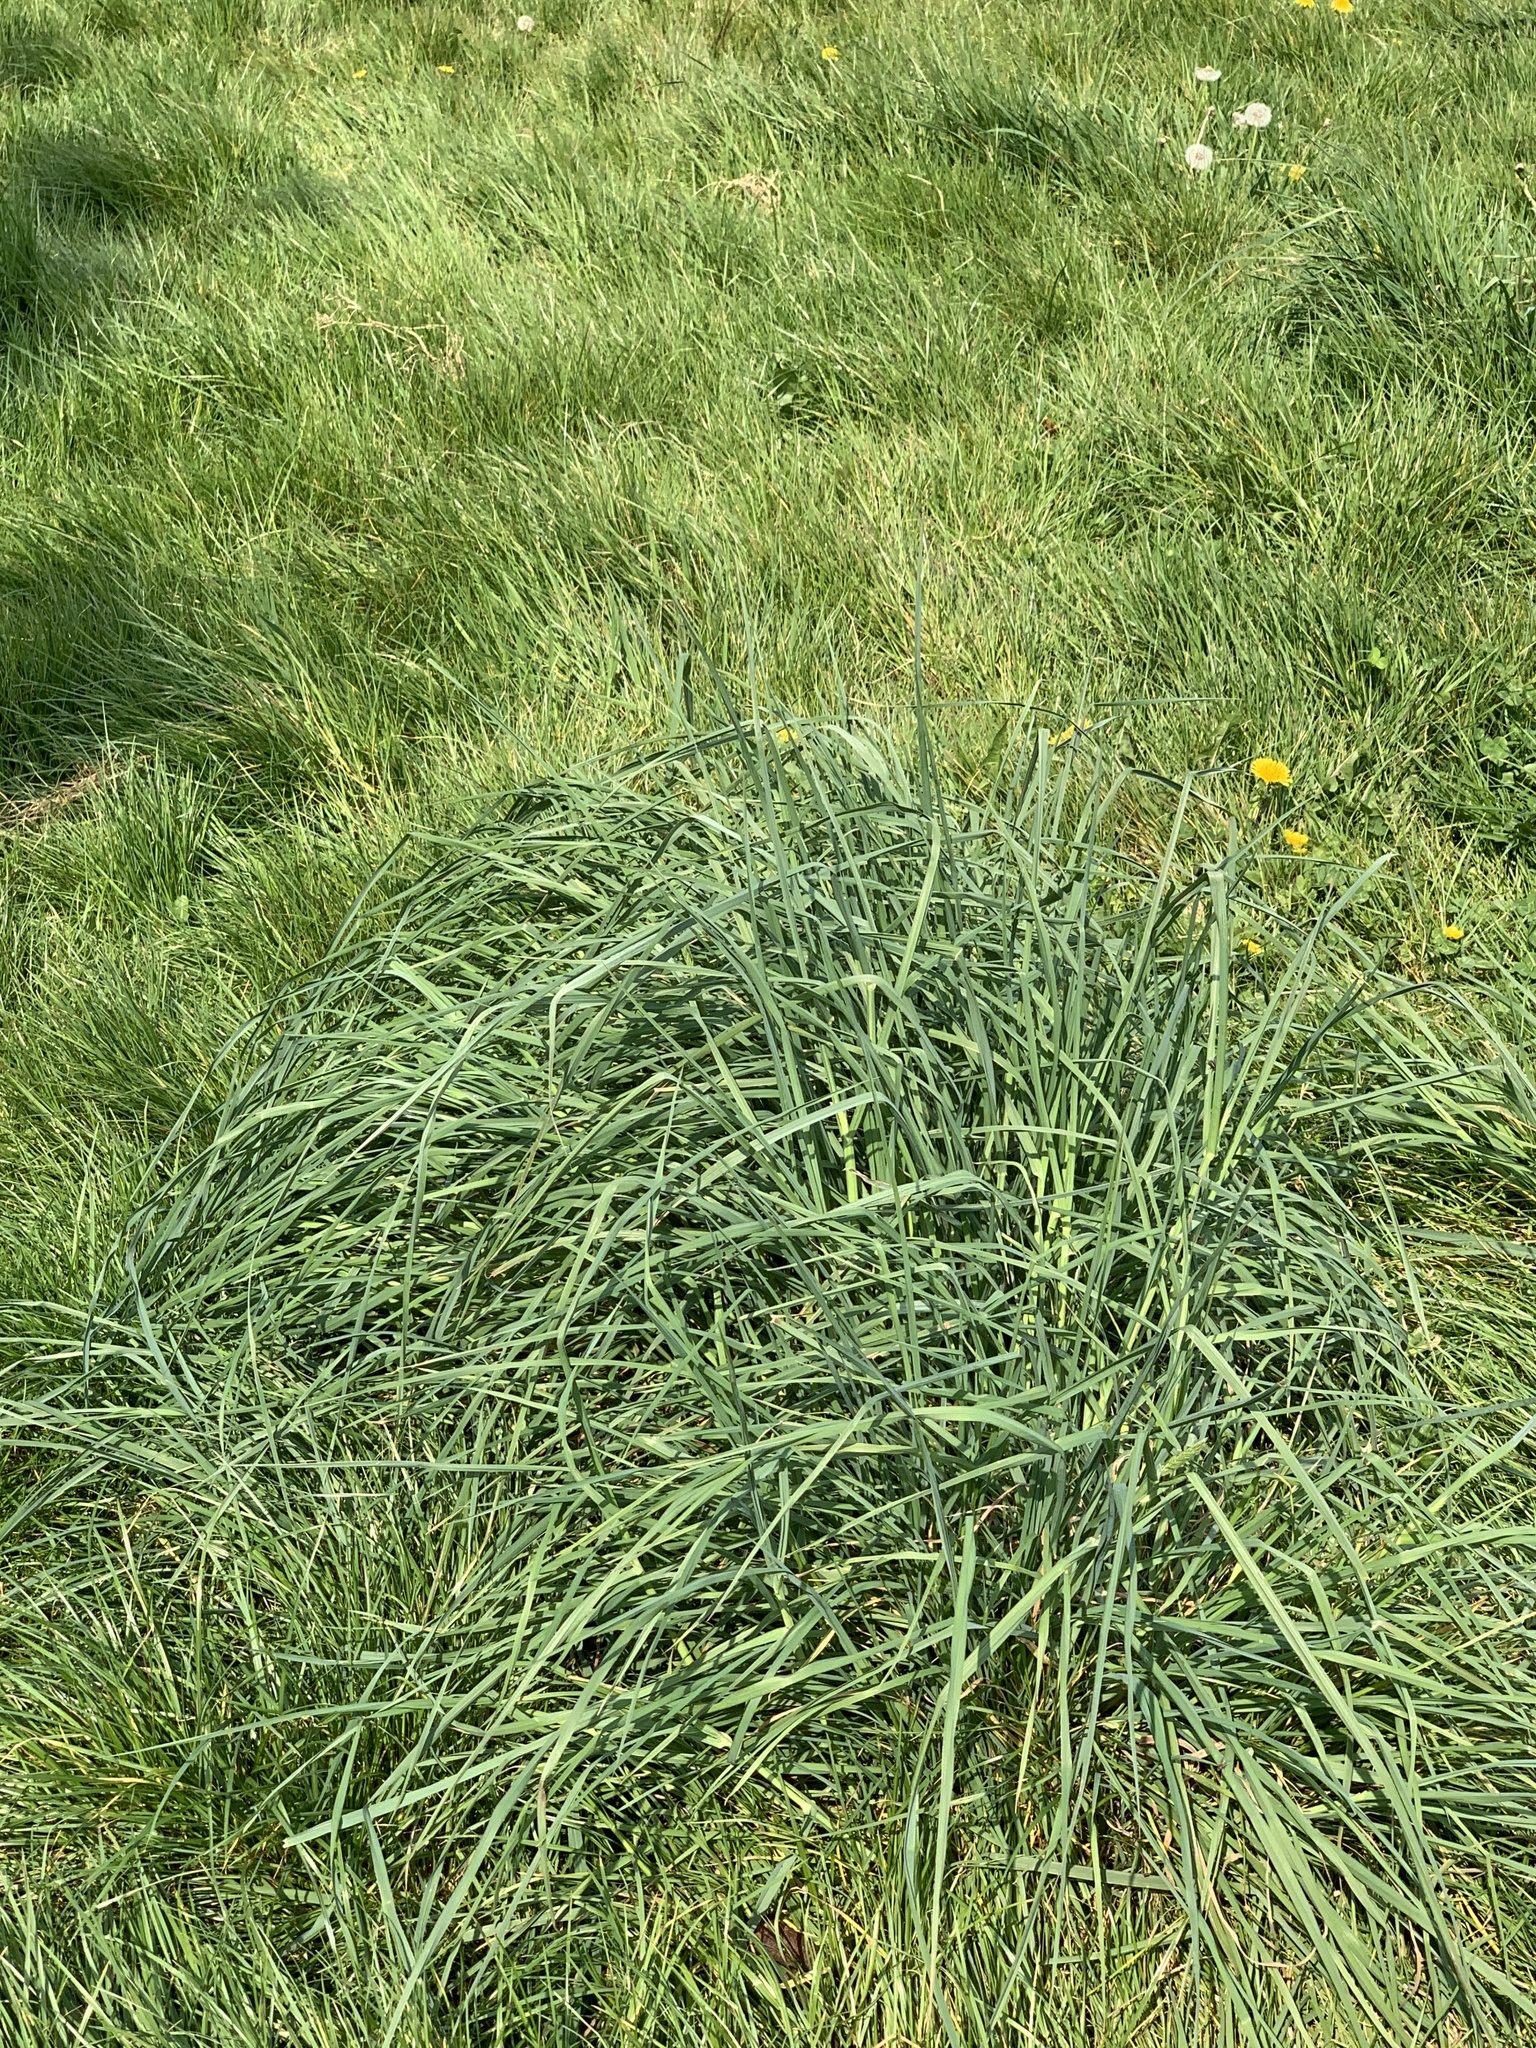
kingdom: Plantae
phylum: Tracheophyta
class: Liliopsida
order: Poales
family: Poaceae
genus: Dactylis
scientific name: Dactylis glomerata
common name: Orchardgrass
